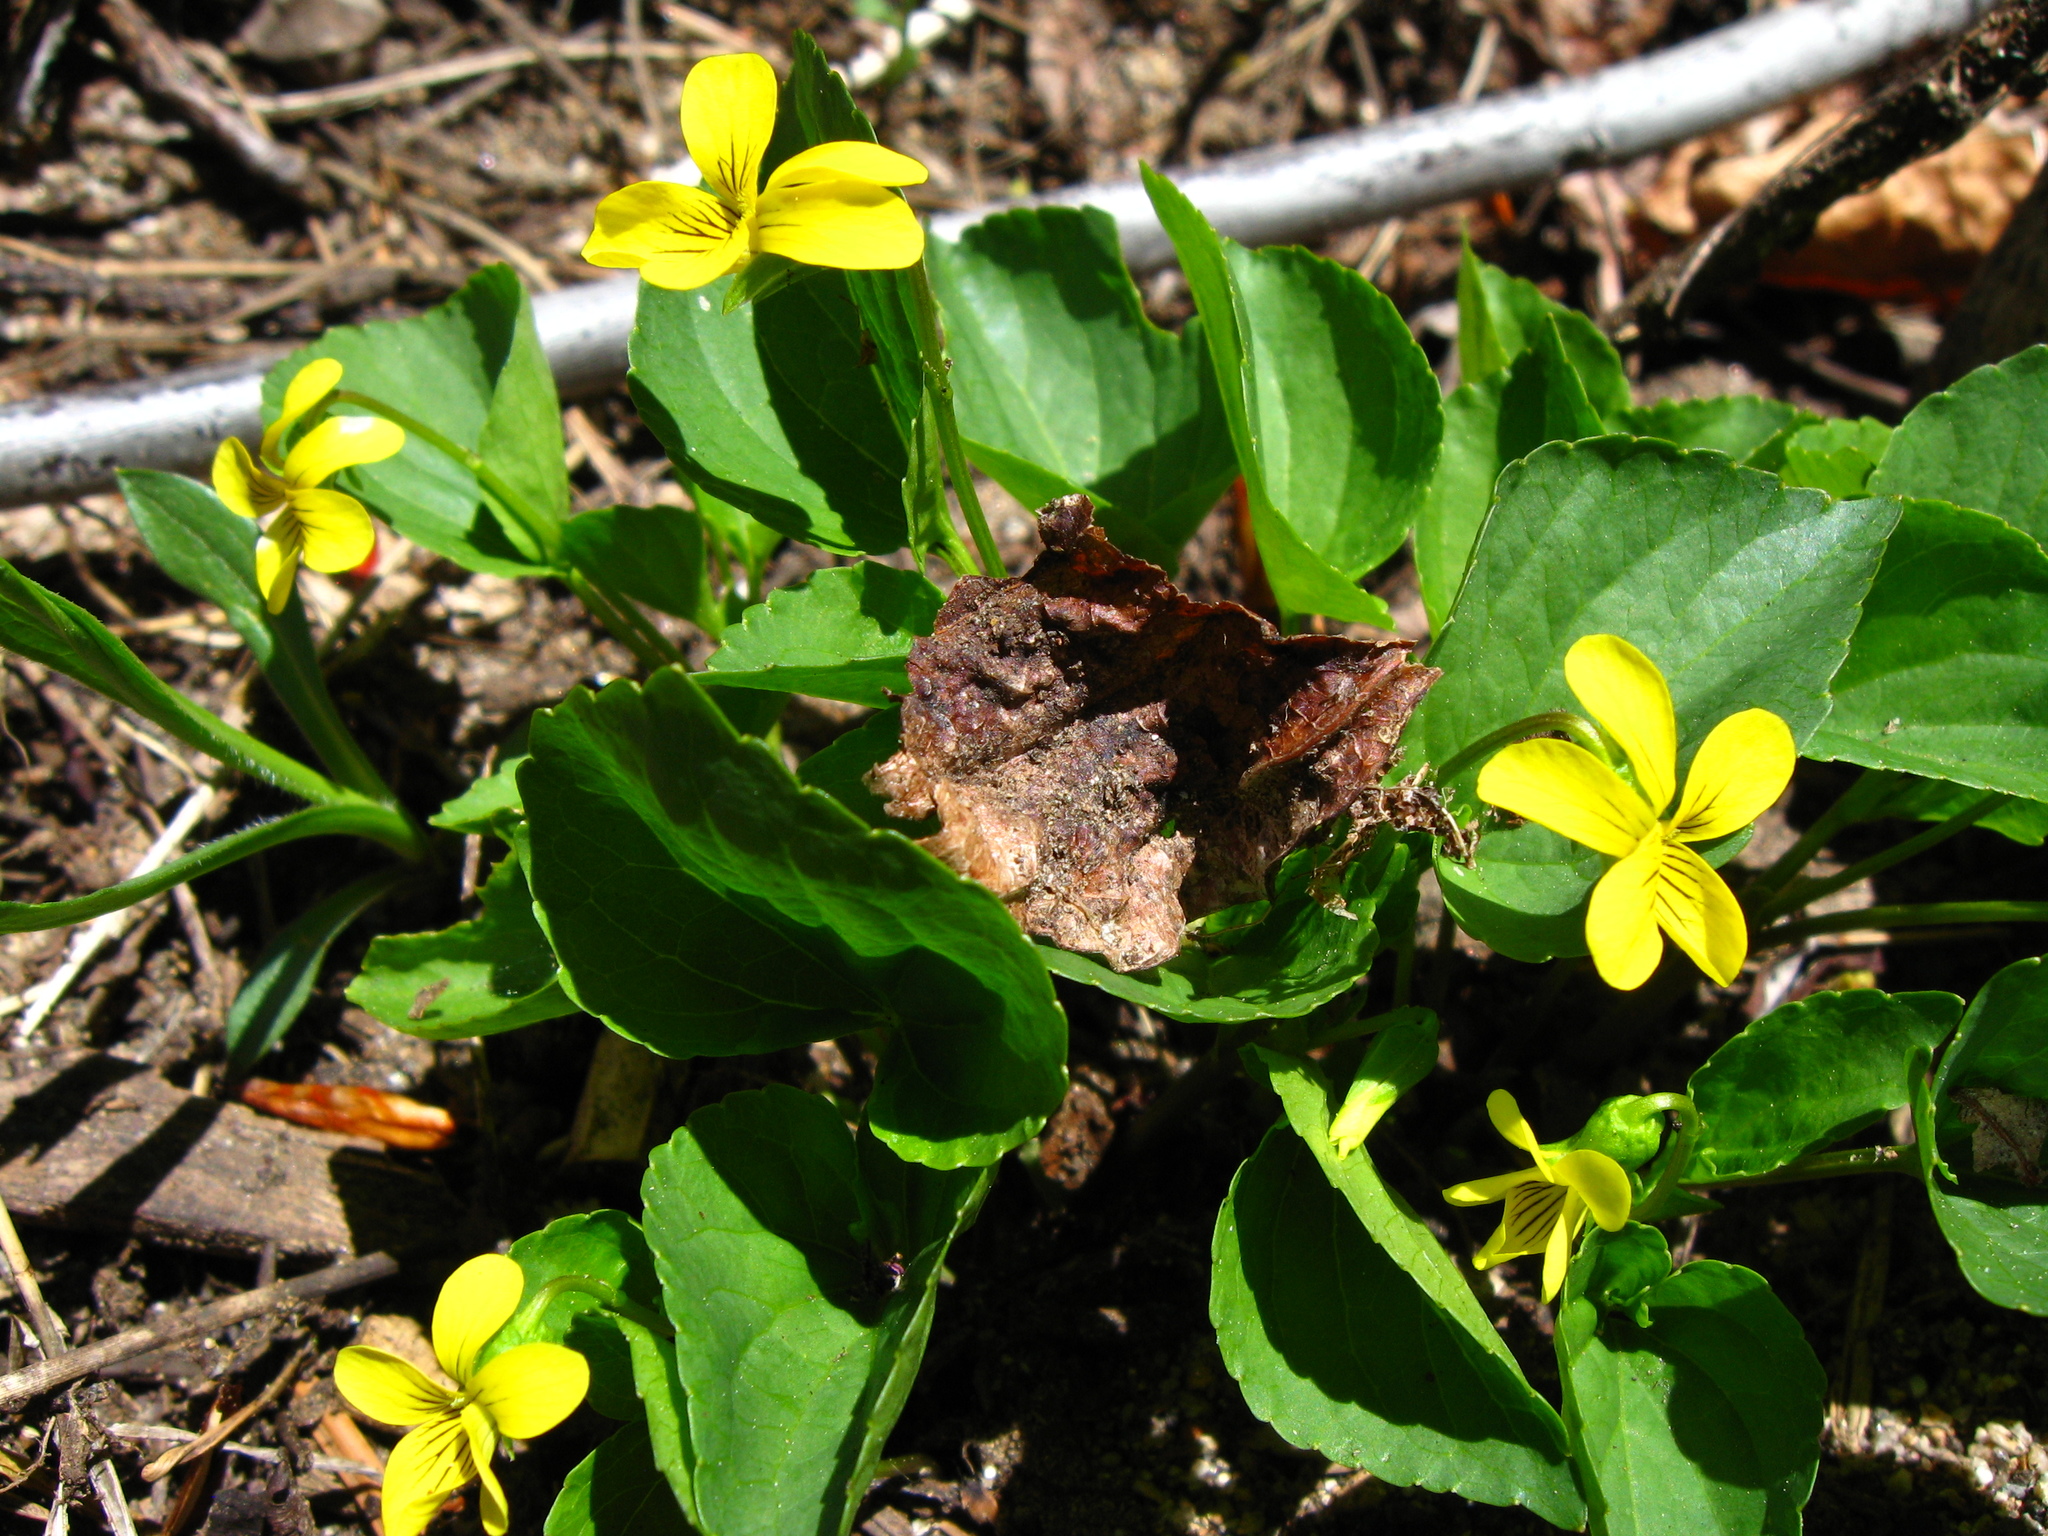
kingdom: Plantae
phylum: Tracheophyta
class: Magnoliopsida
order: Malpighiales
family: Violaceae
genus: Viola
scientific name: Viola glabella
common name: Stream violet
